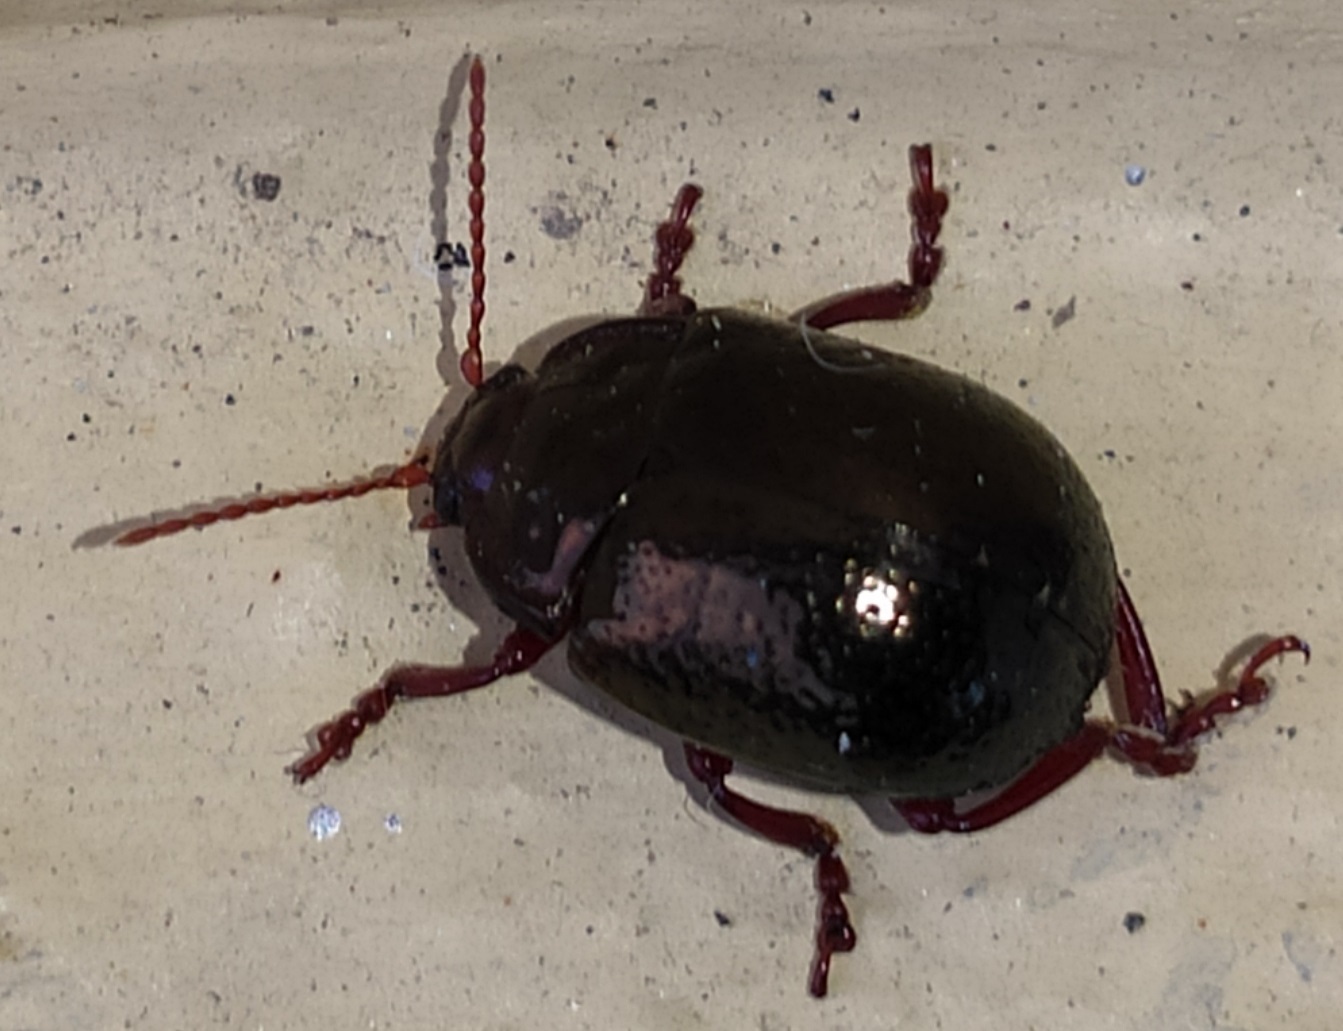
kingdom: Animalia
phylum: Arthropoda
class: Insecta
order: Coleoptera
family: Chrysomelidae
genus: Chrysolina
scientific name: Chrysolina bankii
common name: Leaf beetle
